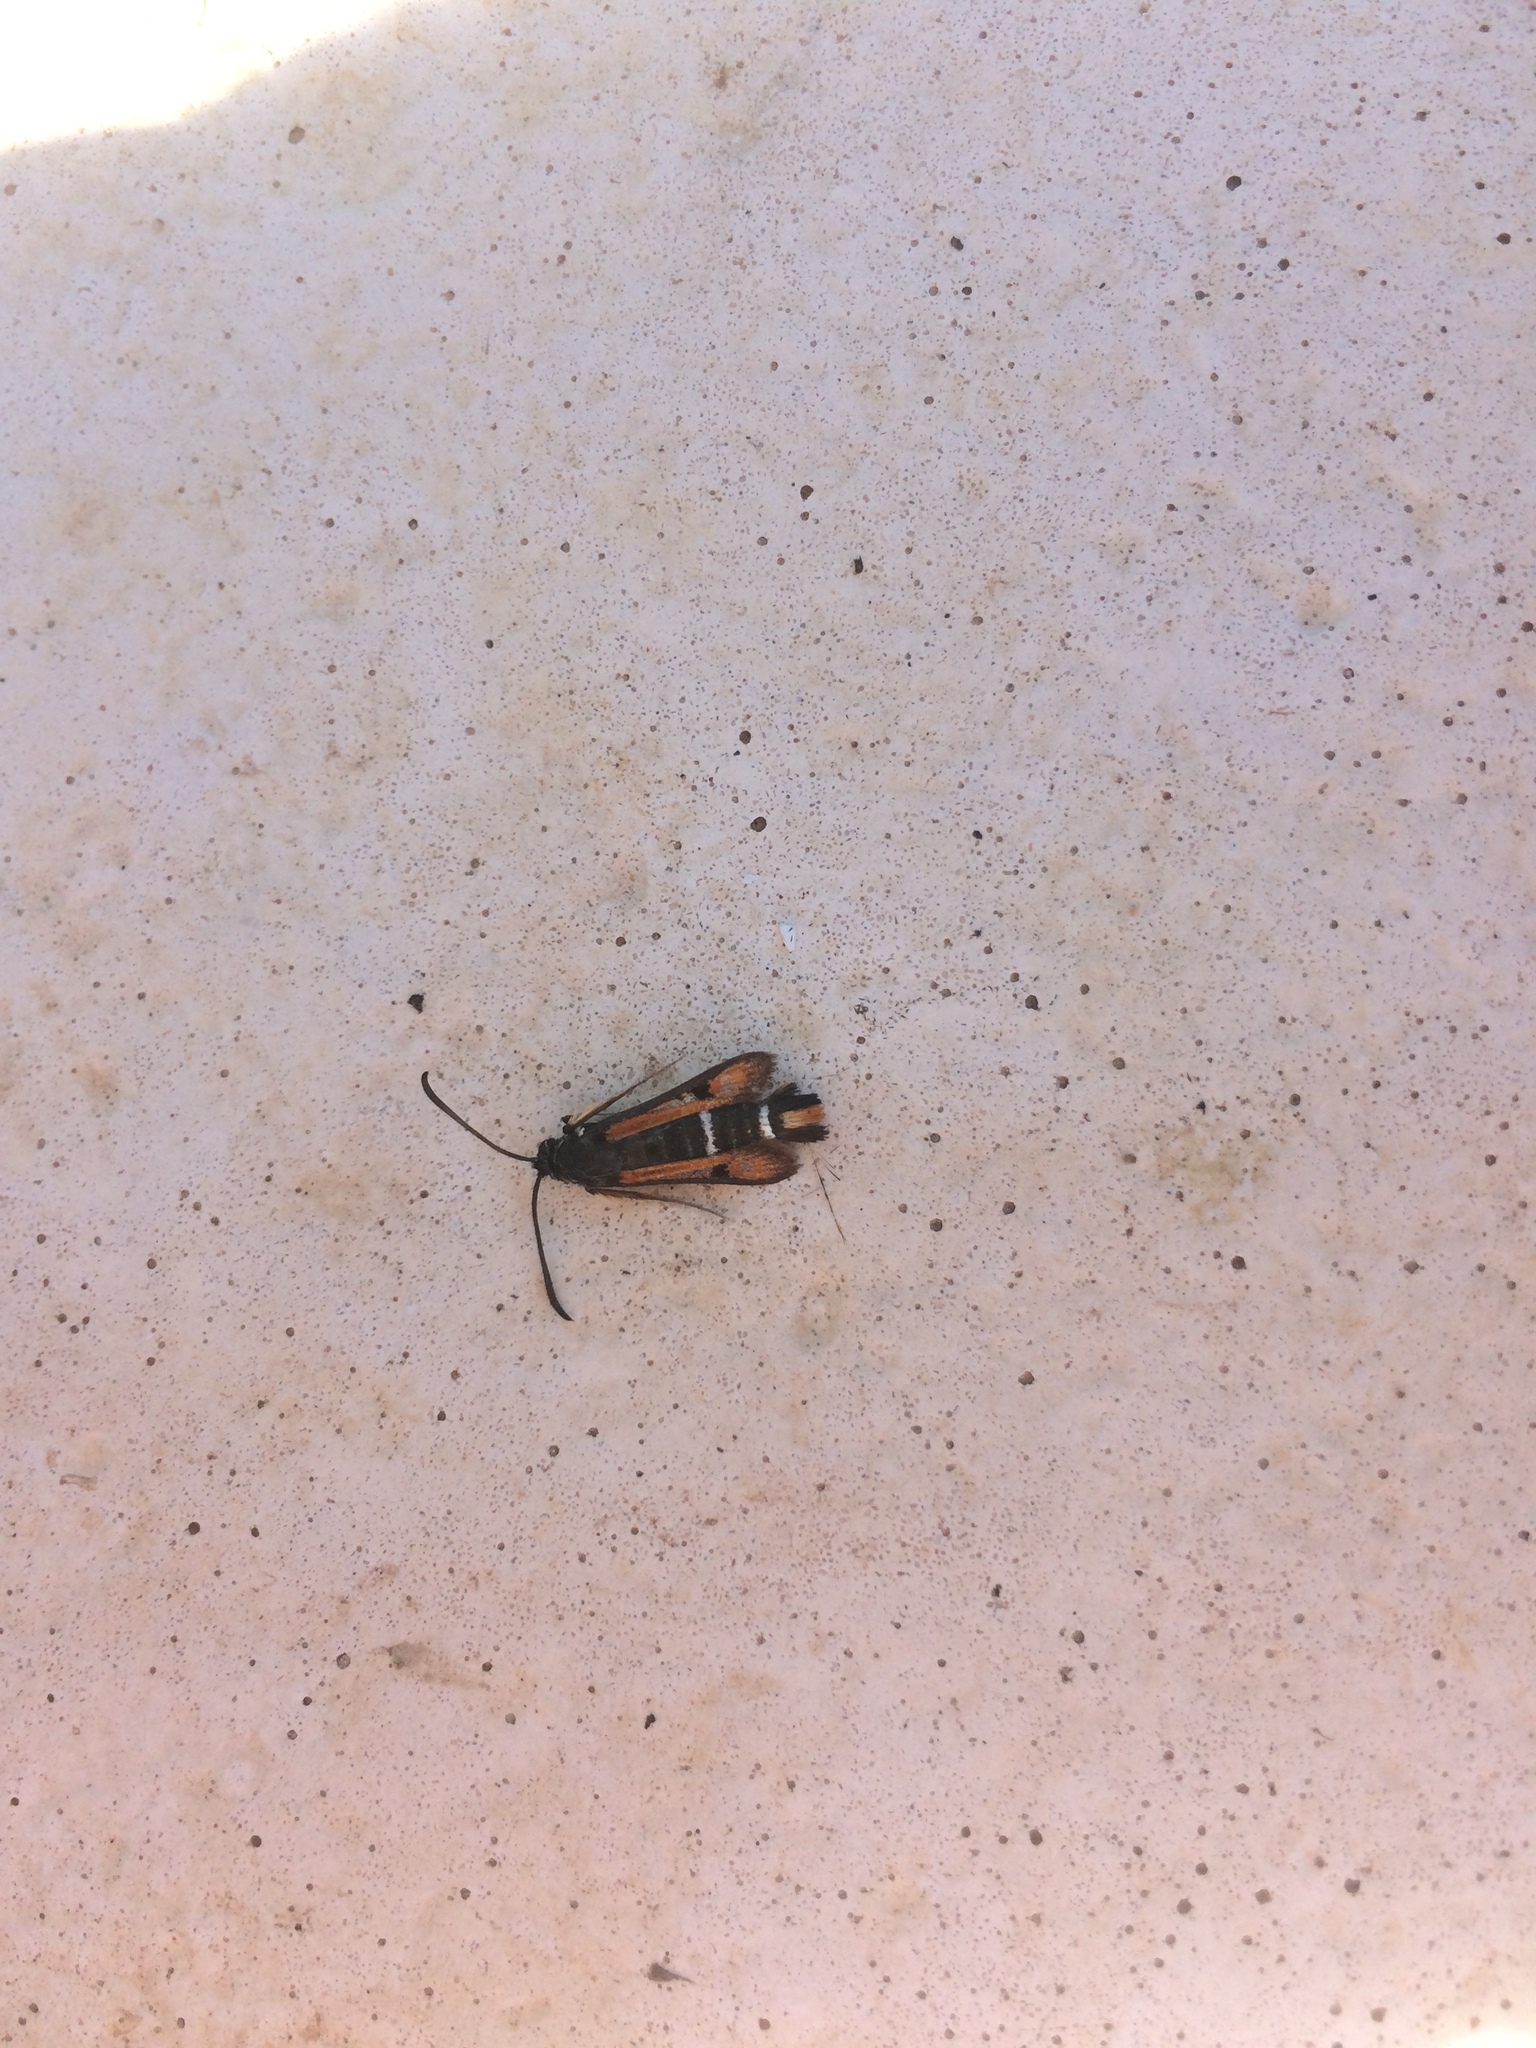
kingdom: Animalia
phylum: Arthropoda
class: Insecta
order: Lepidoptera
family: Sesiidae
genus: Pyropteron
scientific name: Pyropteron chrysidiforme
